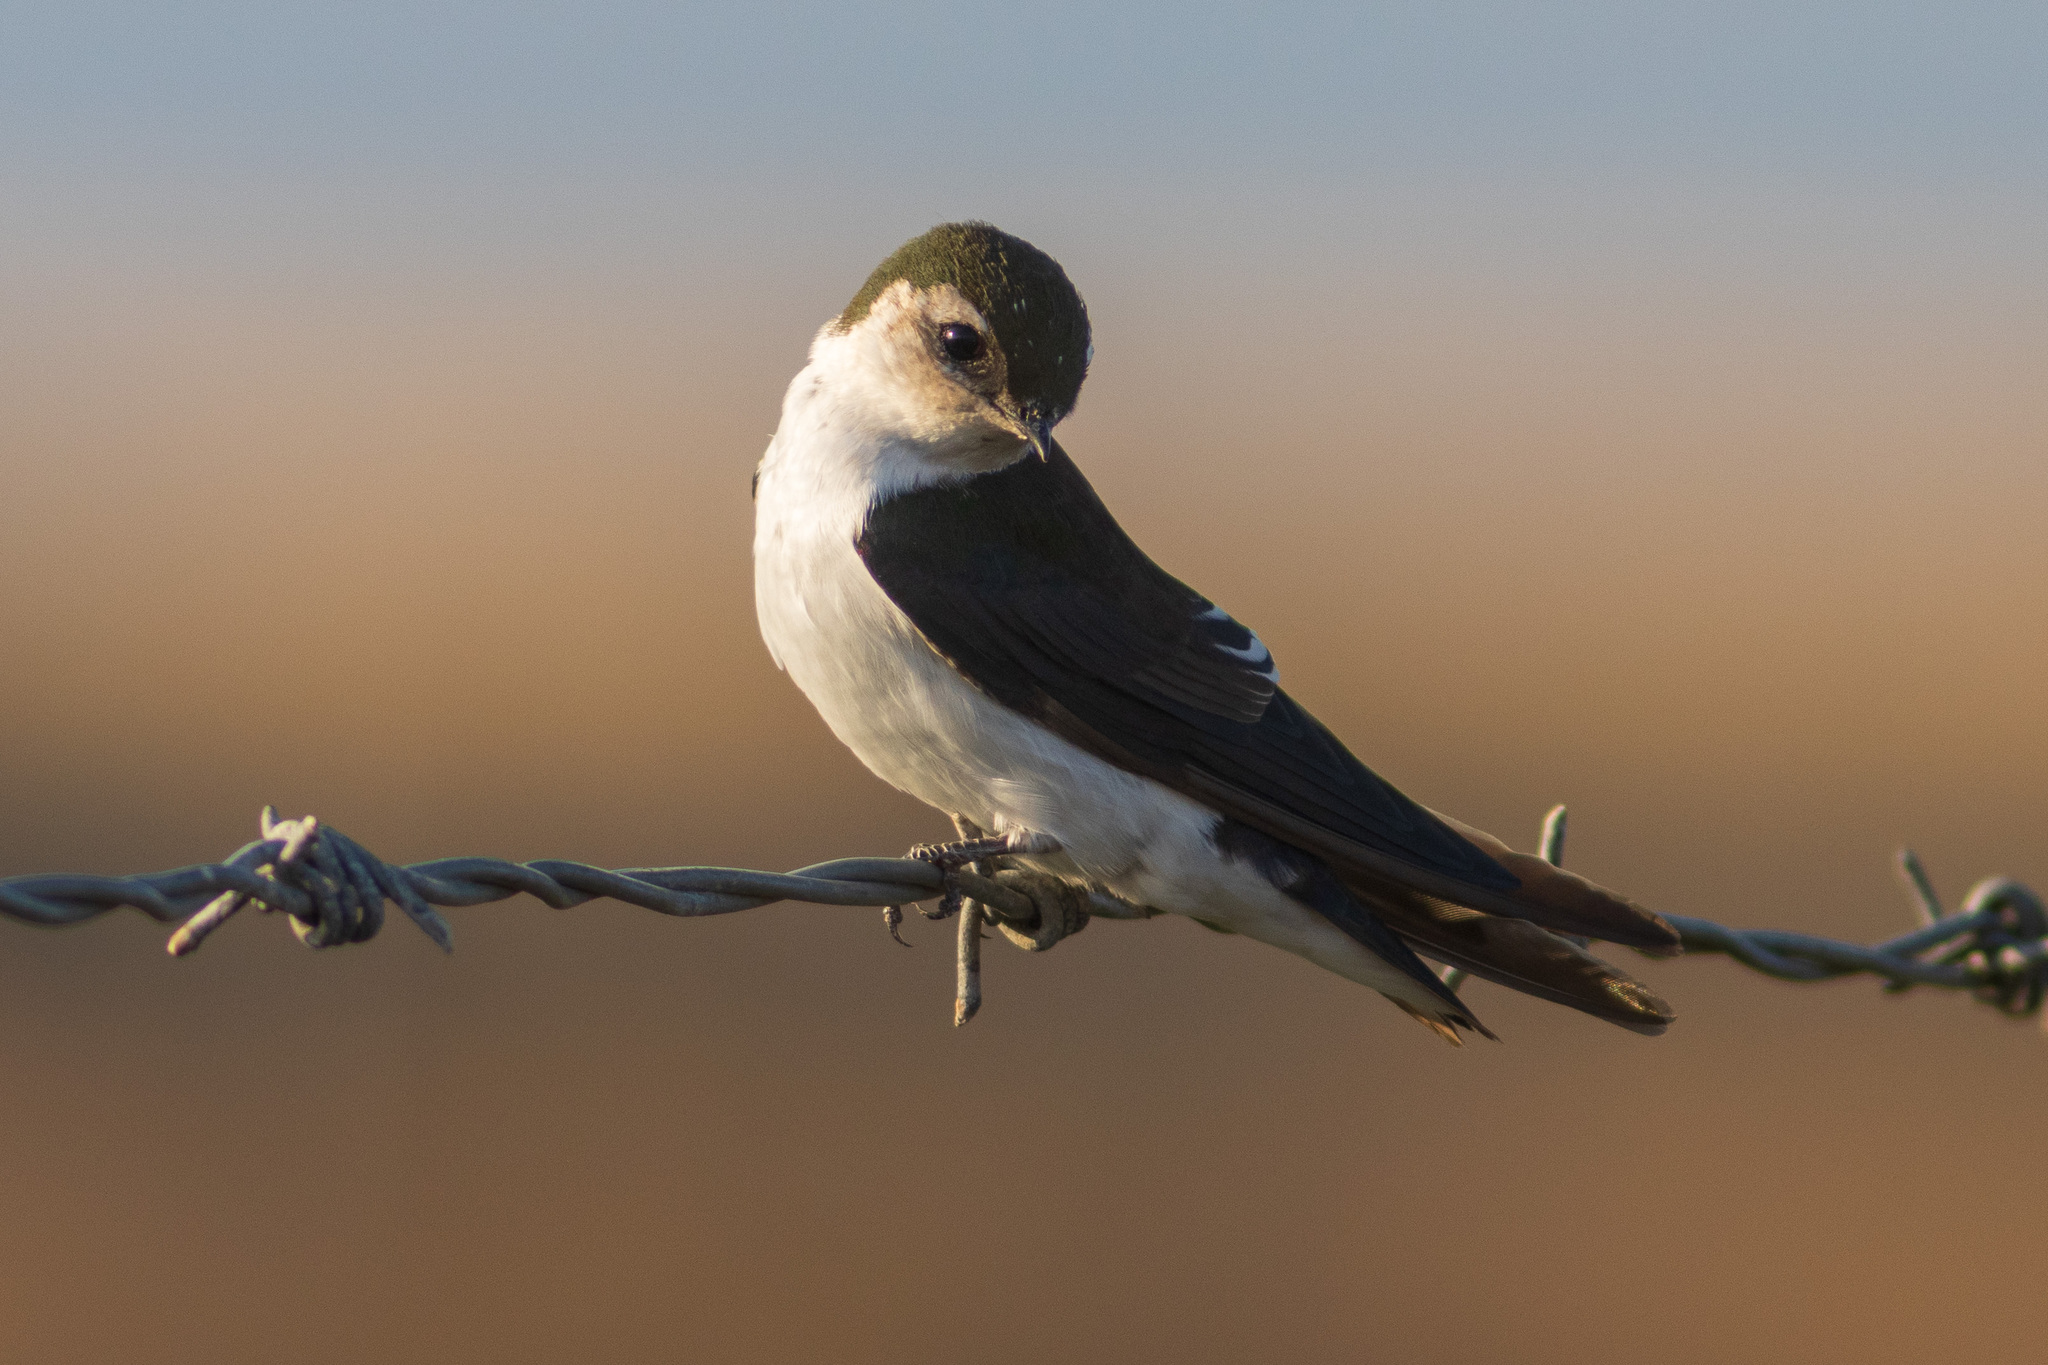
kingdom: Animalia
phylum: Chordata
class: Aves
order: Passeriformes
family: Hirundinidae
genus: Tachycineta
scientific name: Tachycineta thalassina
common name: Violet-green swallow
